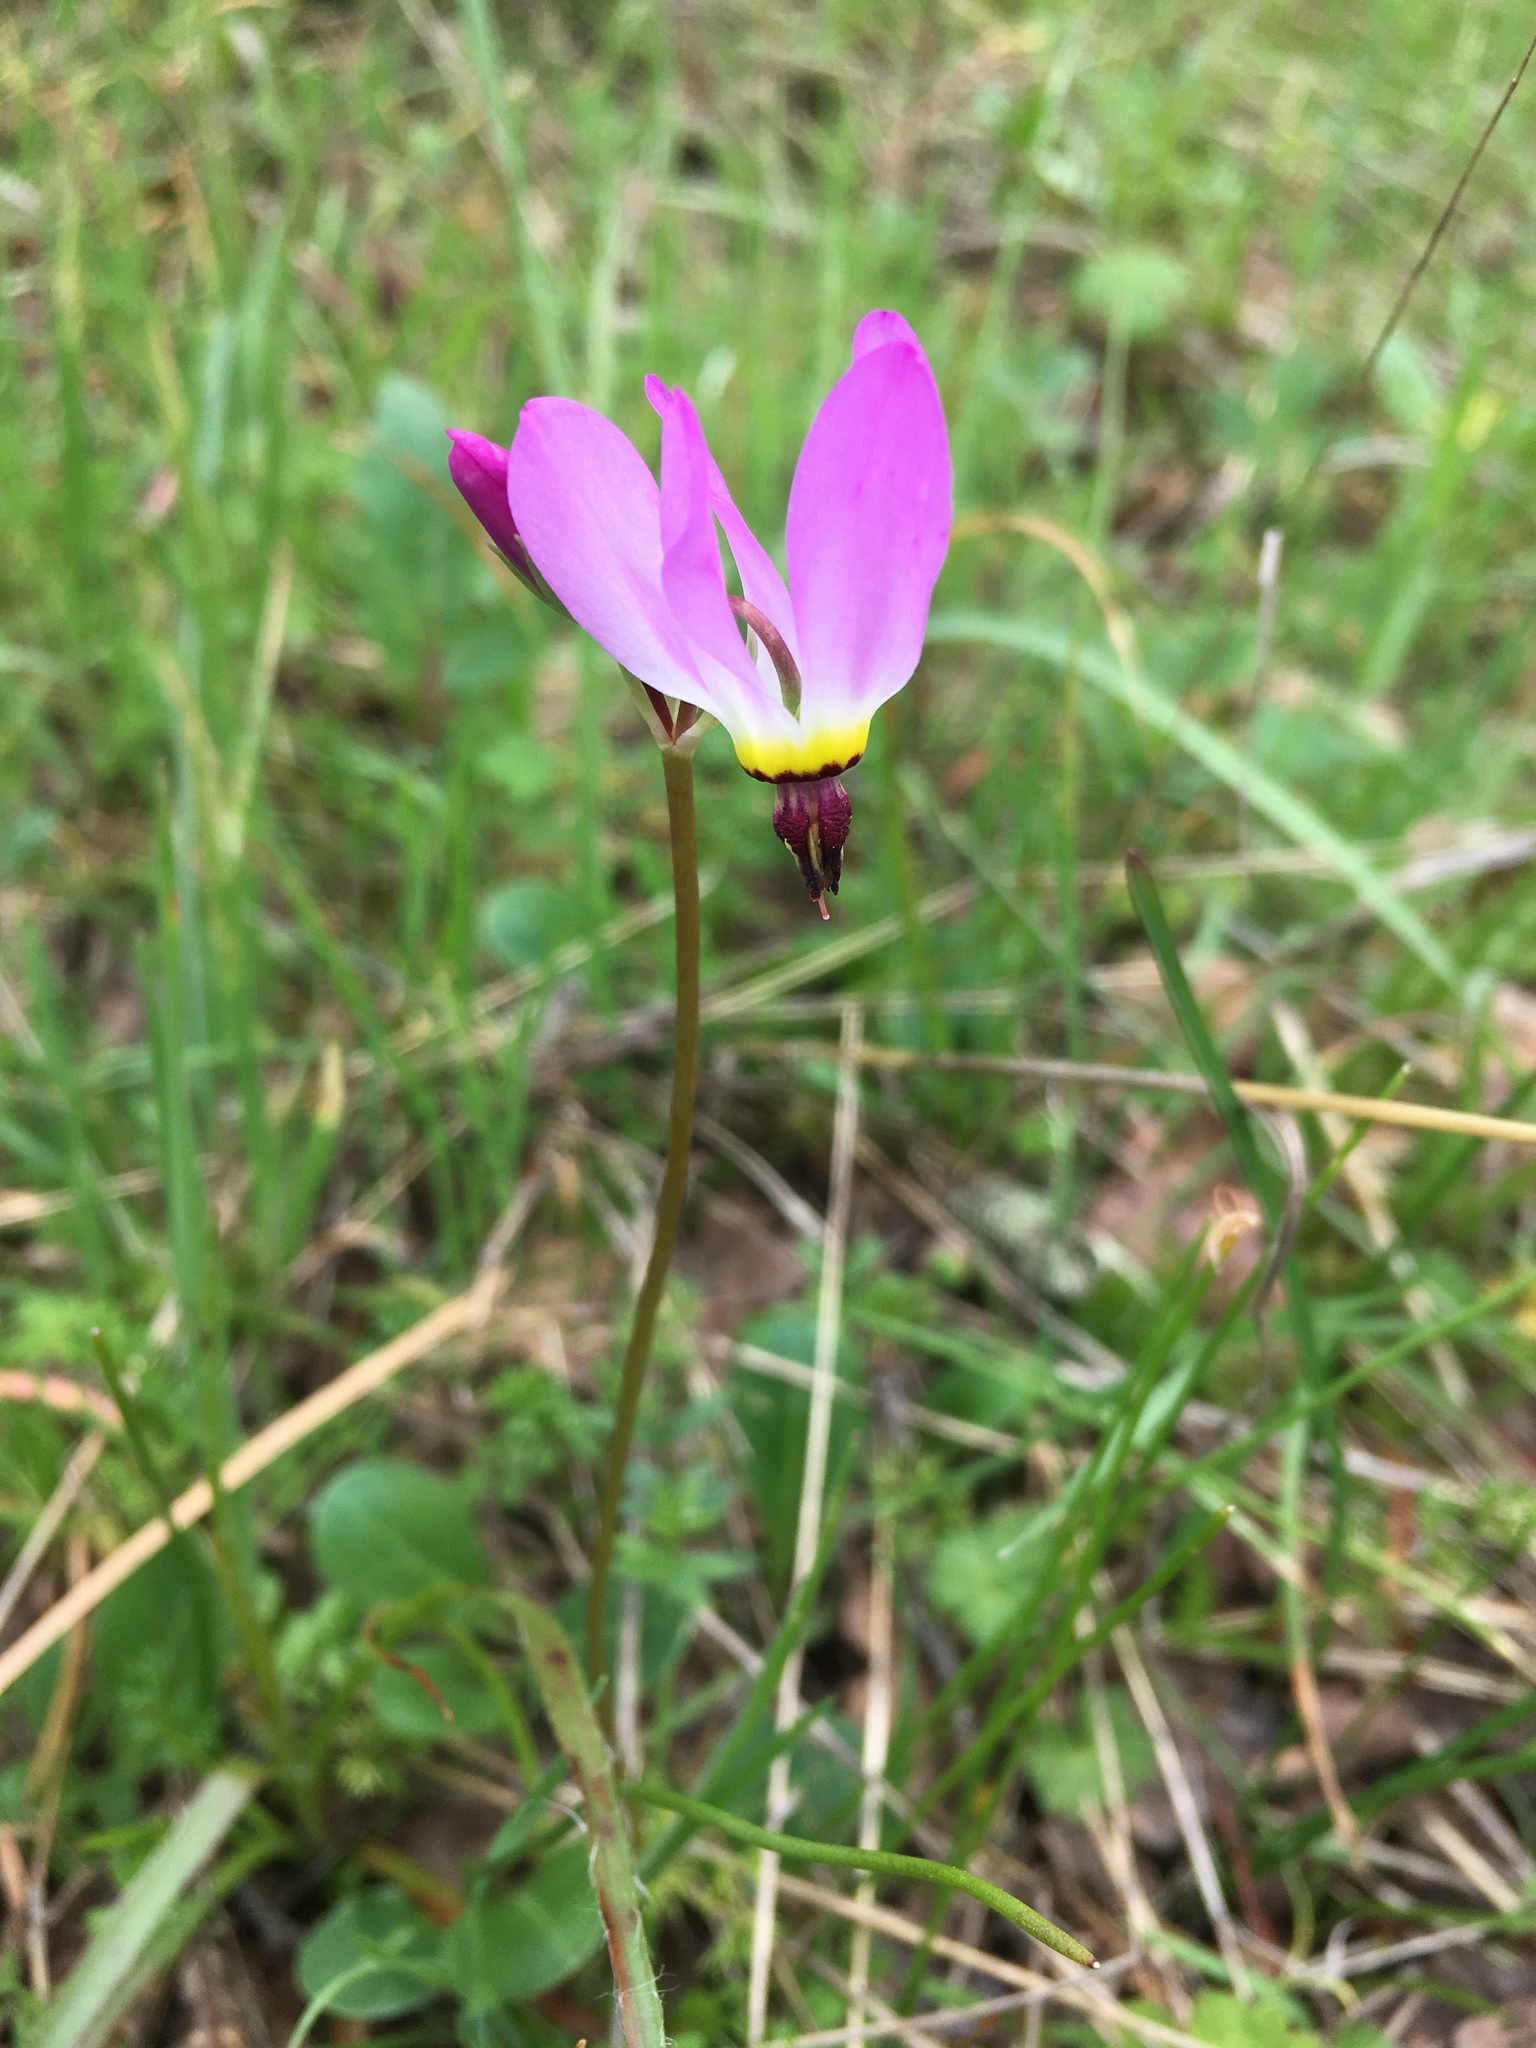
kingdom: Plantae
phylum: Tracheophyta
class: Magnoliopsida
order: Ericales
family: Primulaceae
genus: Dodecatheon
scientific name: Dodecatheon hendersonii
